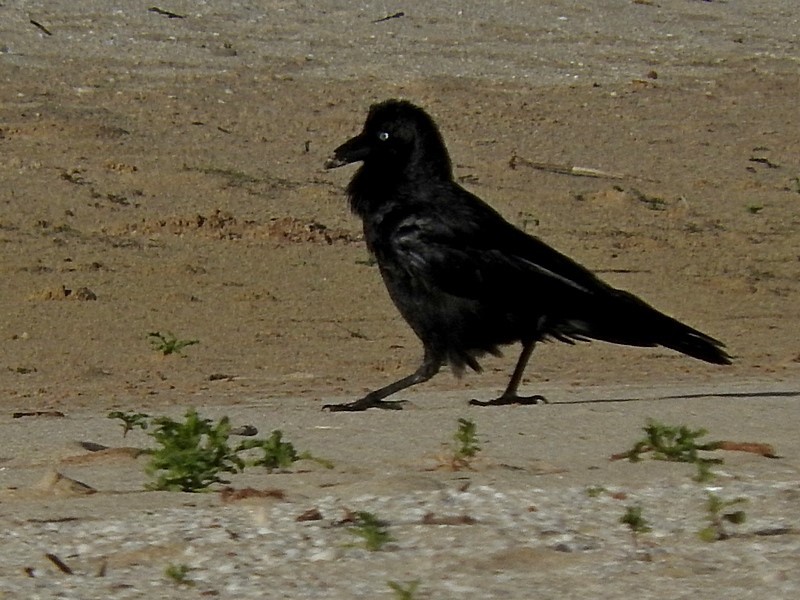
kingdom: Animalia
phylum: Chordata
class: Aves
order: Passeriformes
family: Corvidae
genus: Corvus
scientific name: Corvus coronoides
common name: Australian raven
